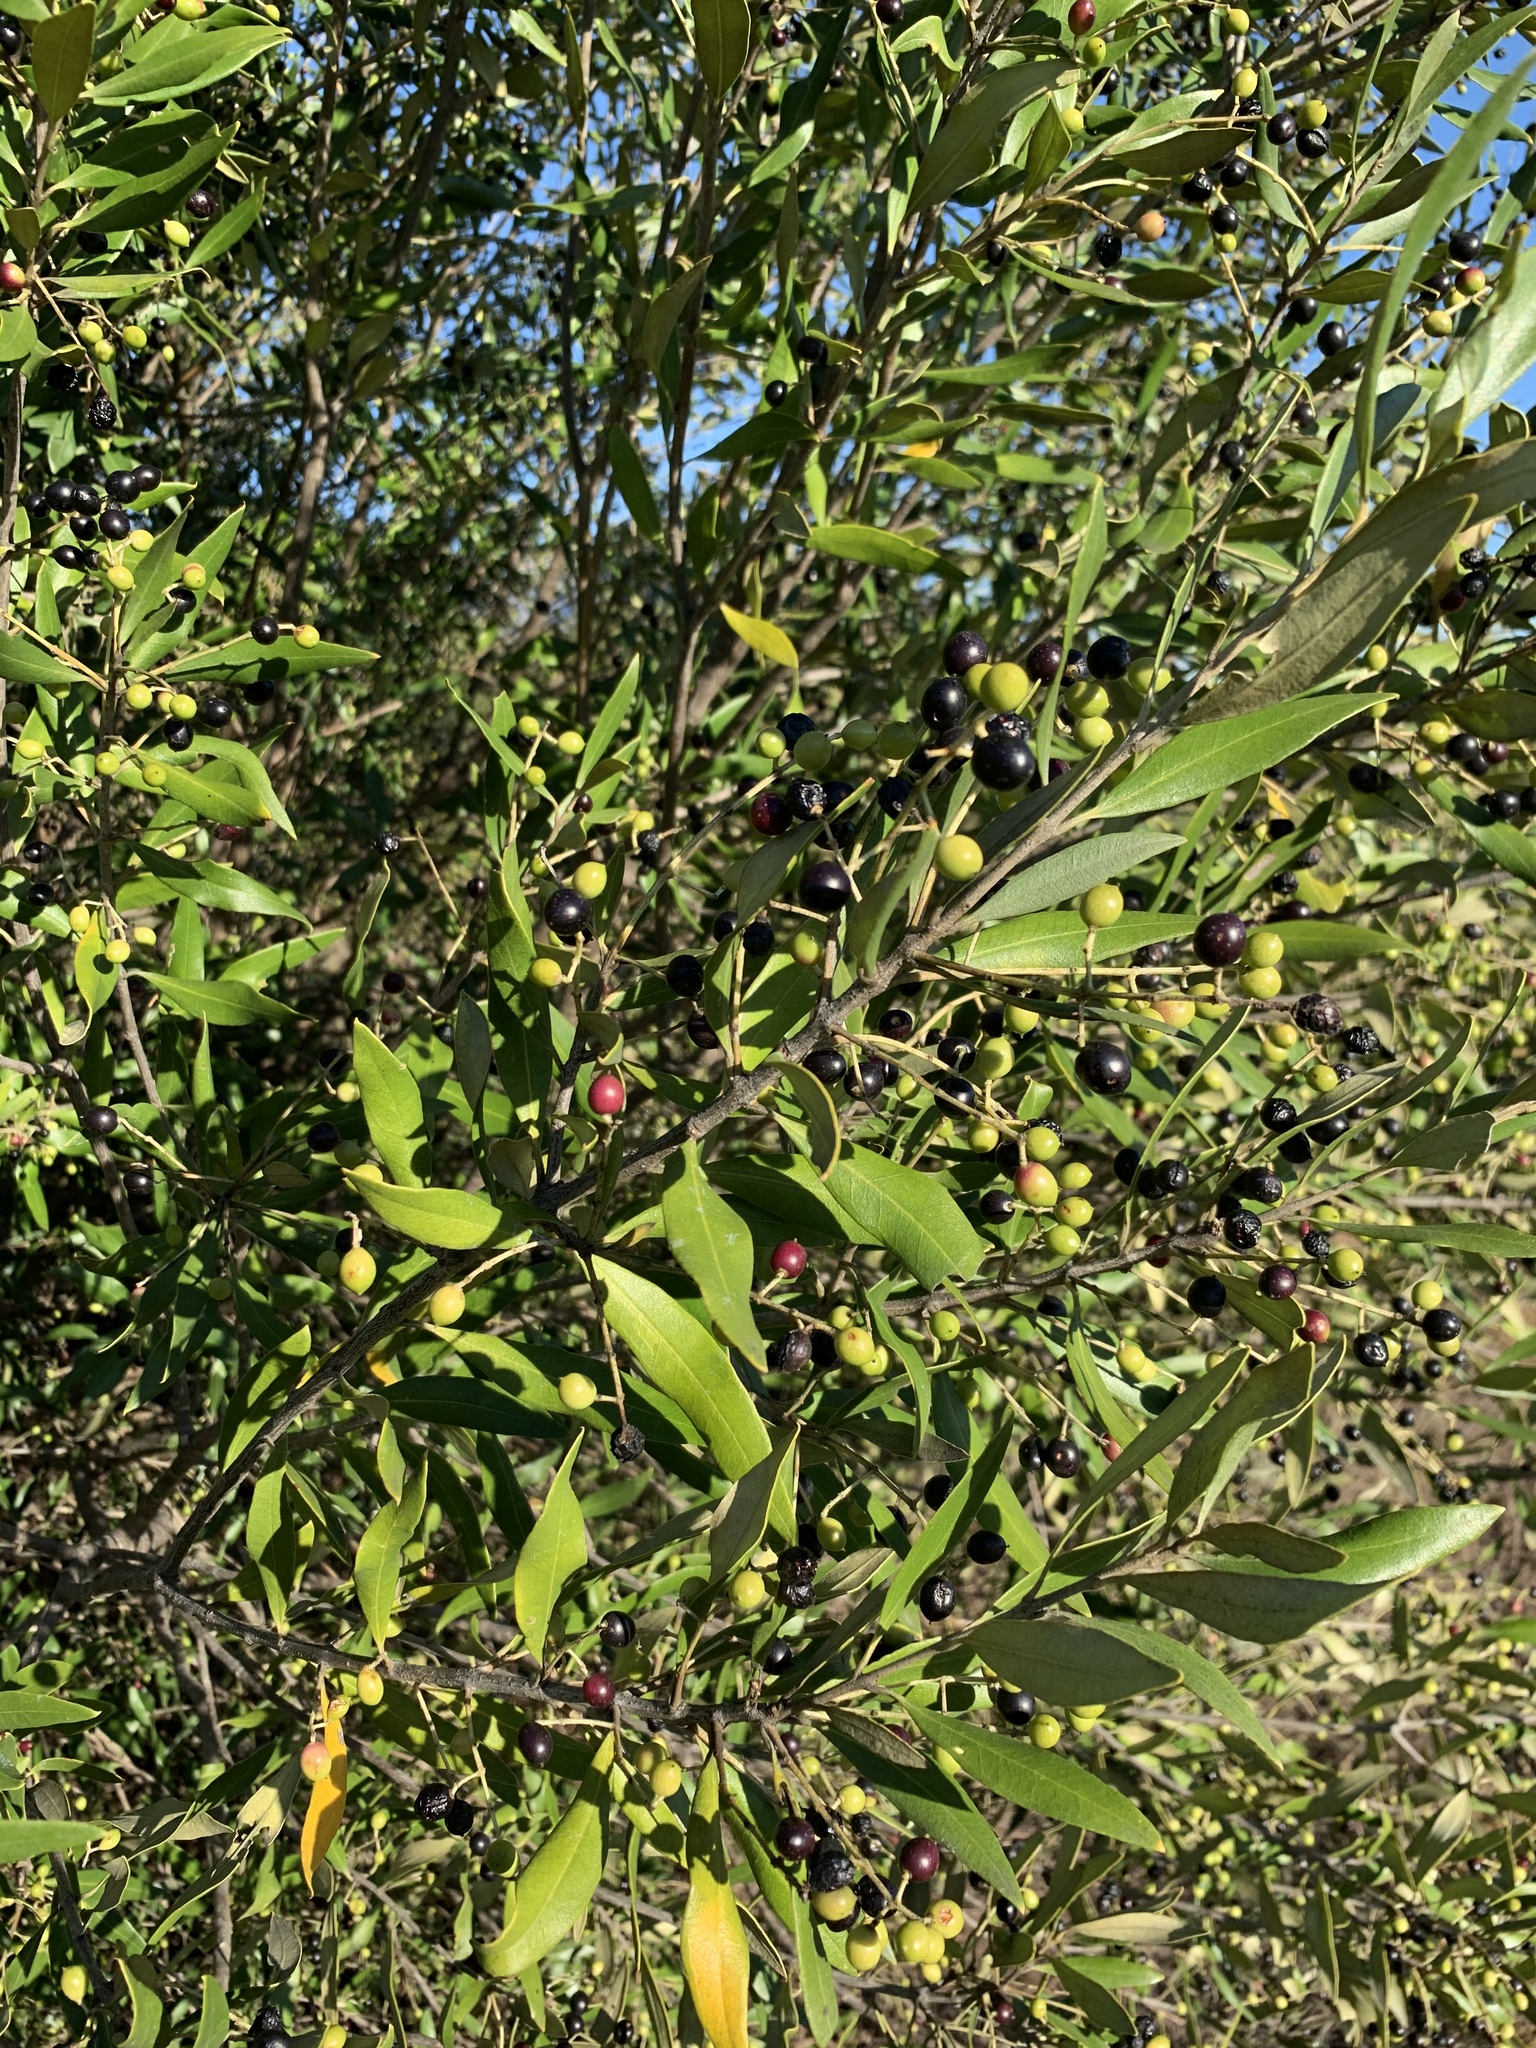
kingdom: Plantae
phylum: Tracheophyta
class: Magnoliopsida
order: Lamiales
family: Oleaceae
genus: Olea
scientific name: Olea europaea
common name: Olive
